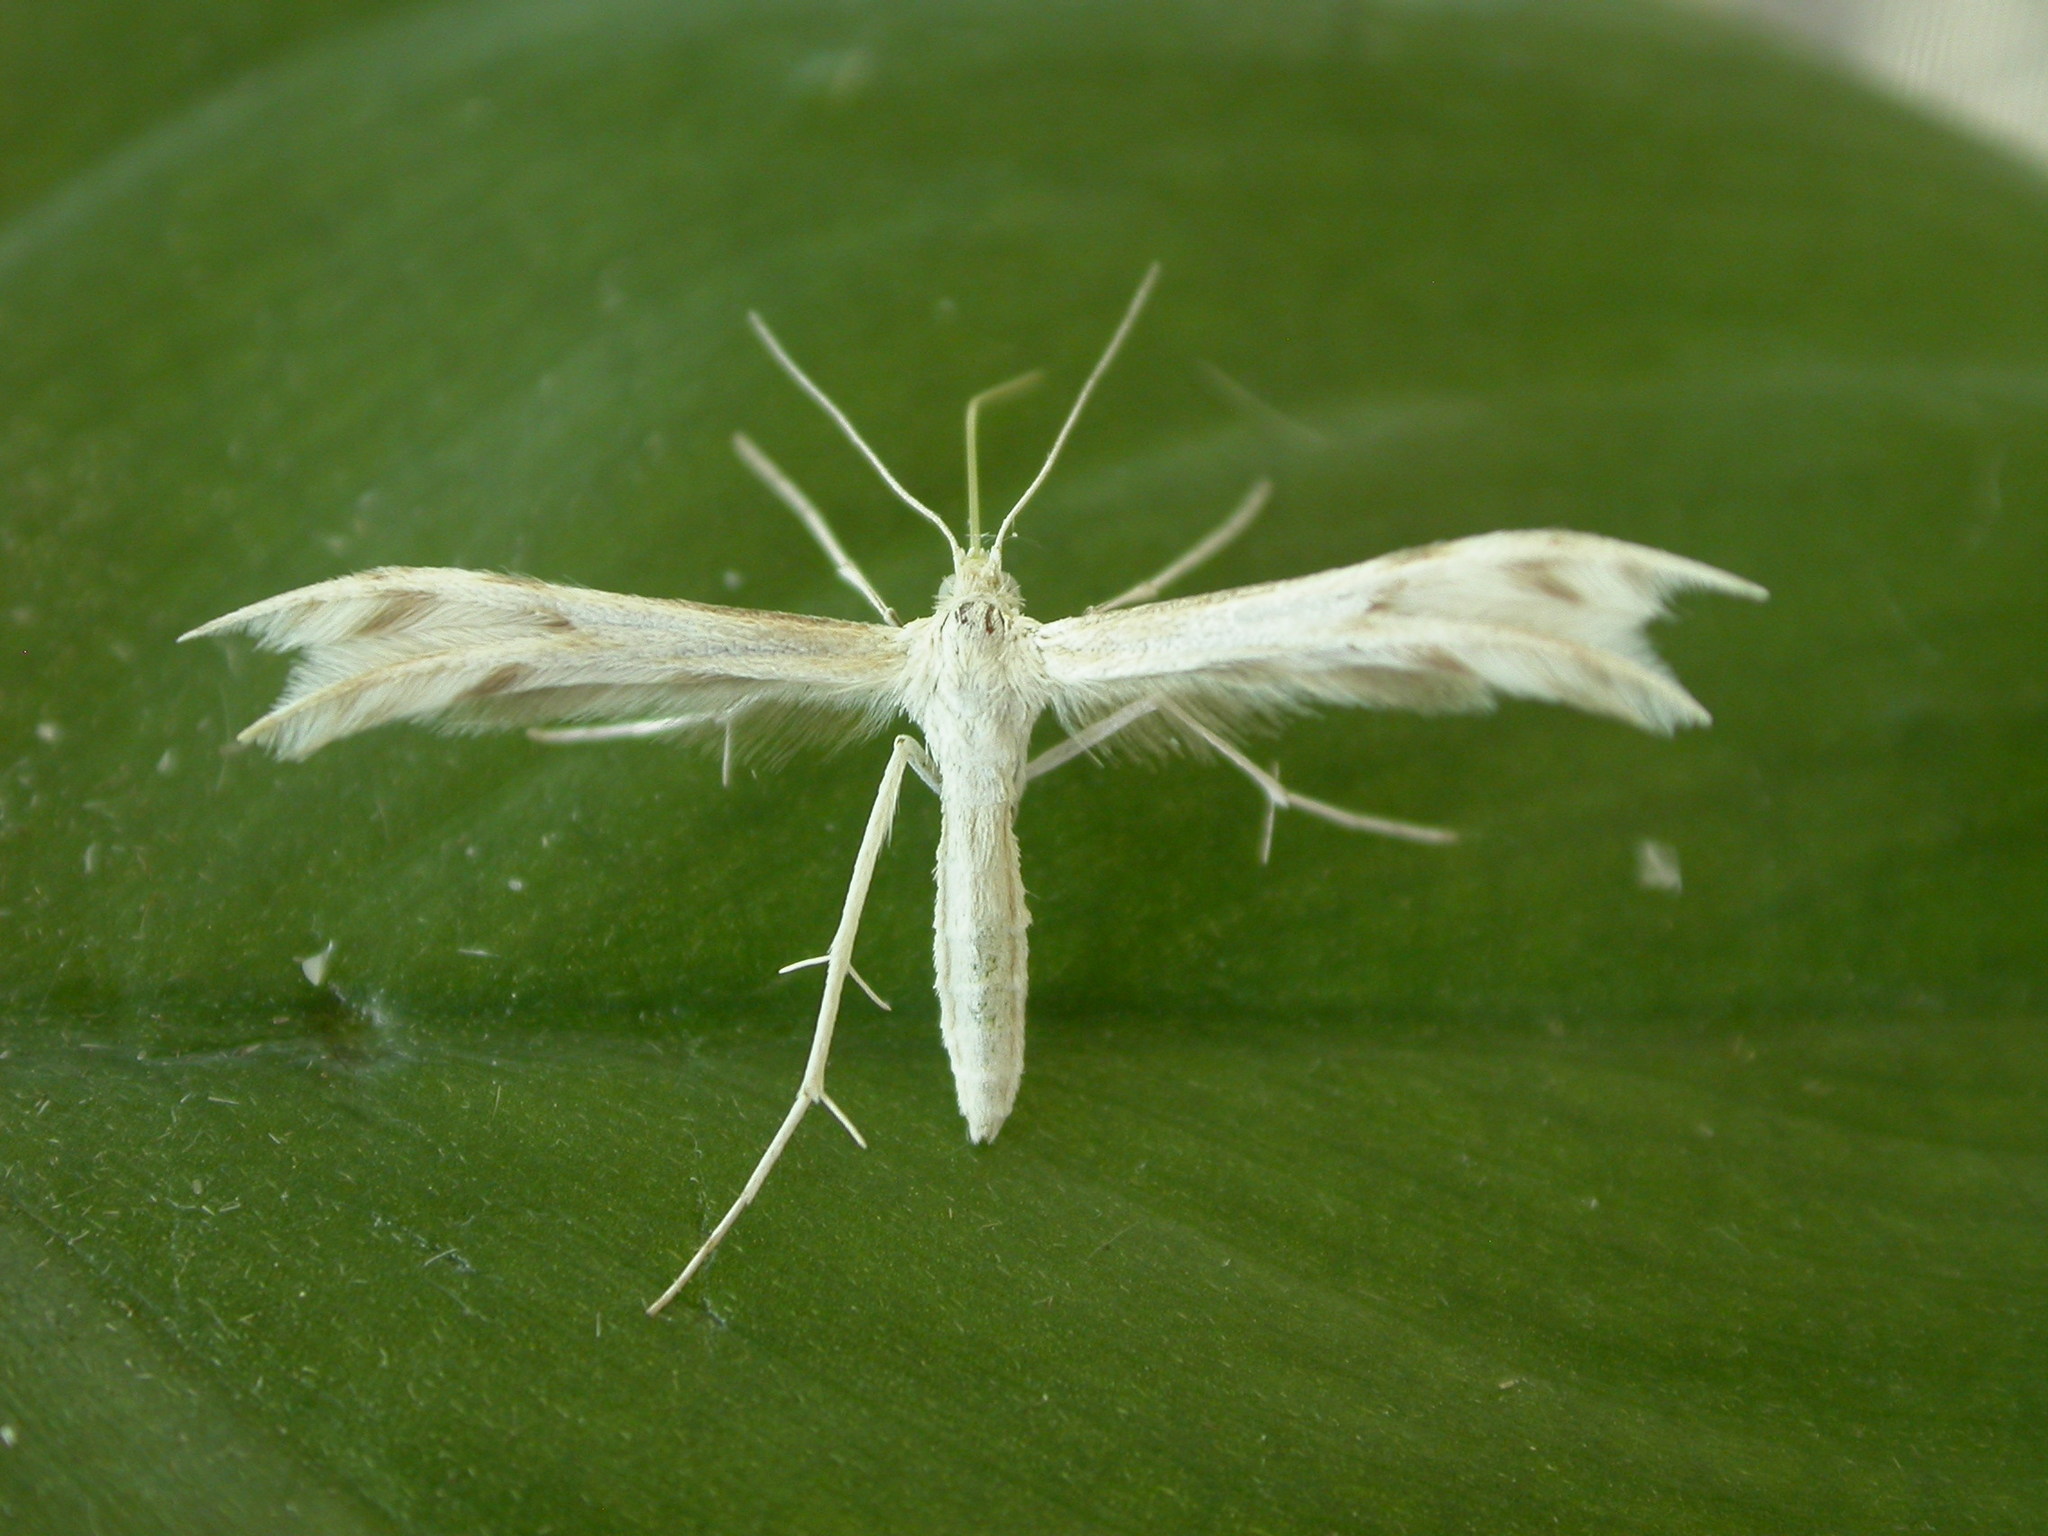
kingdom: Animalia
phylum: Arthropoda
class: Insecta
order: Lepidoptera
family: Pterophoridae
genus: Wheeleria
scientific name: Wheeleria spilodactylus
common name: Horehound plume
